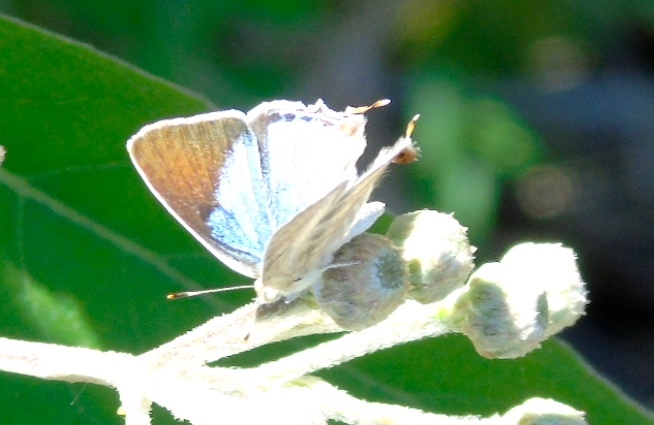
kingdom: Animalia
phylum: Arthropoda
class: Insecta
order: Lepidoptera
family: Lycaenidae
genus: Dolymorpha
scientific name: Dolymorpha jada
